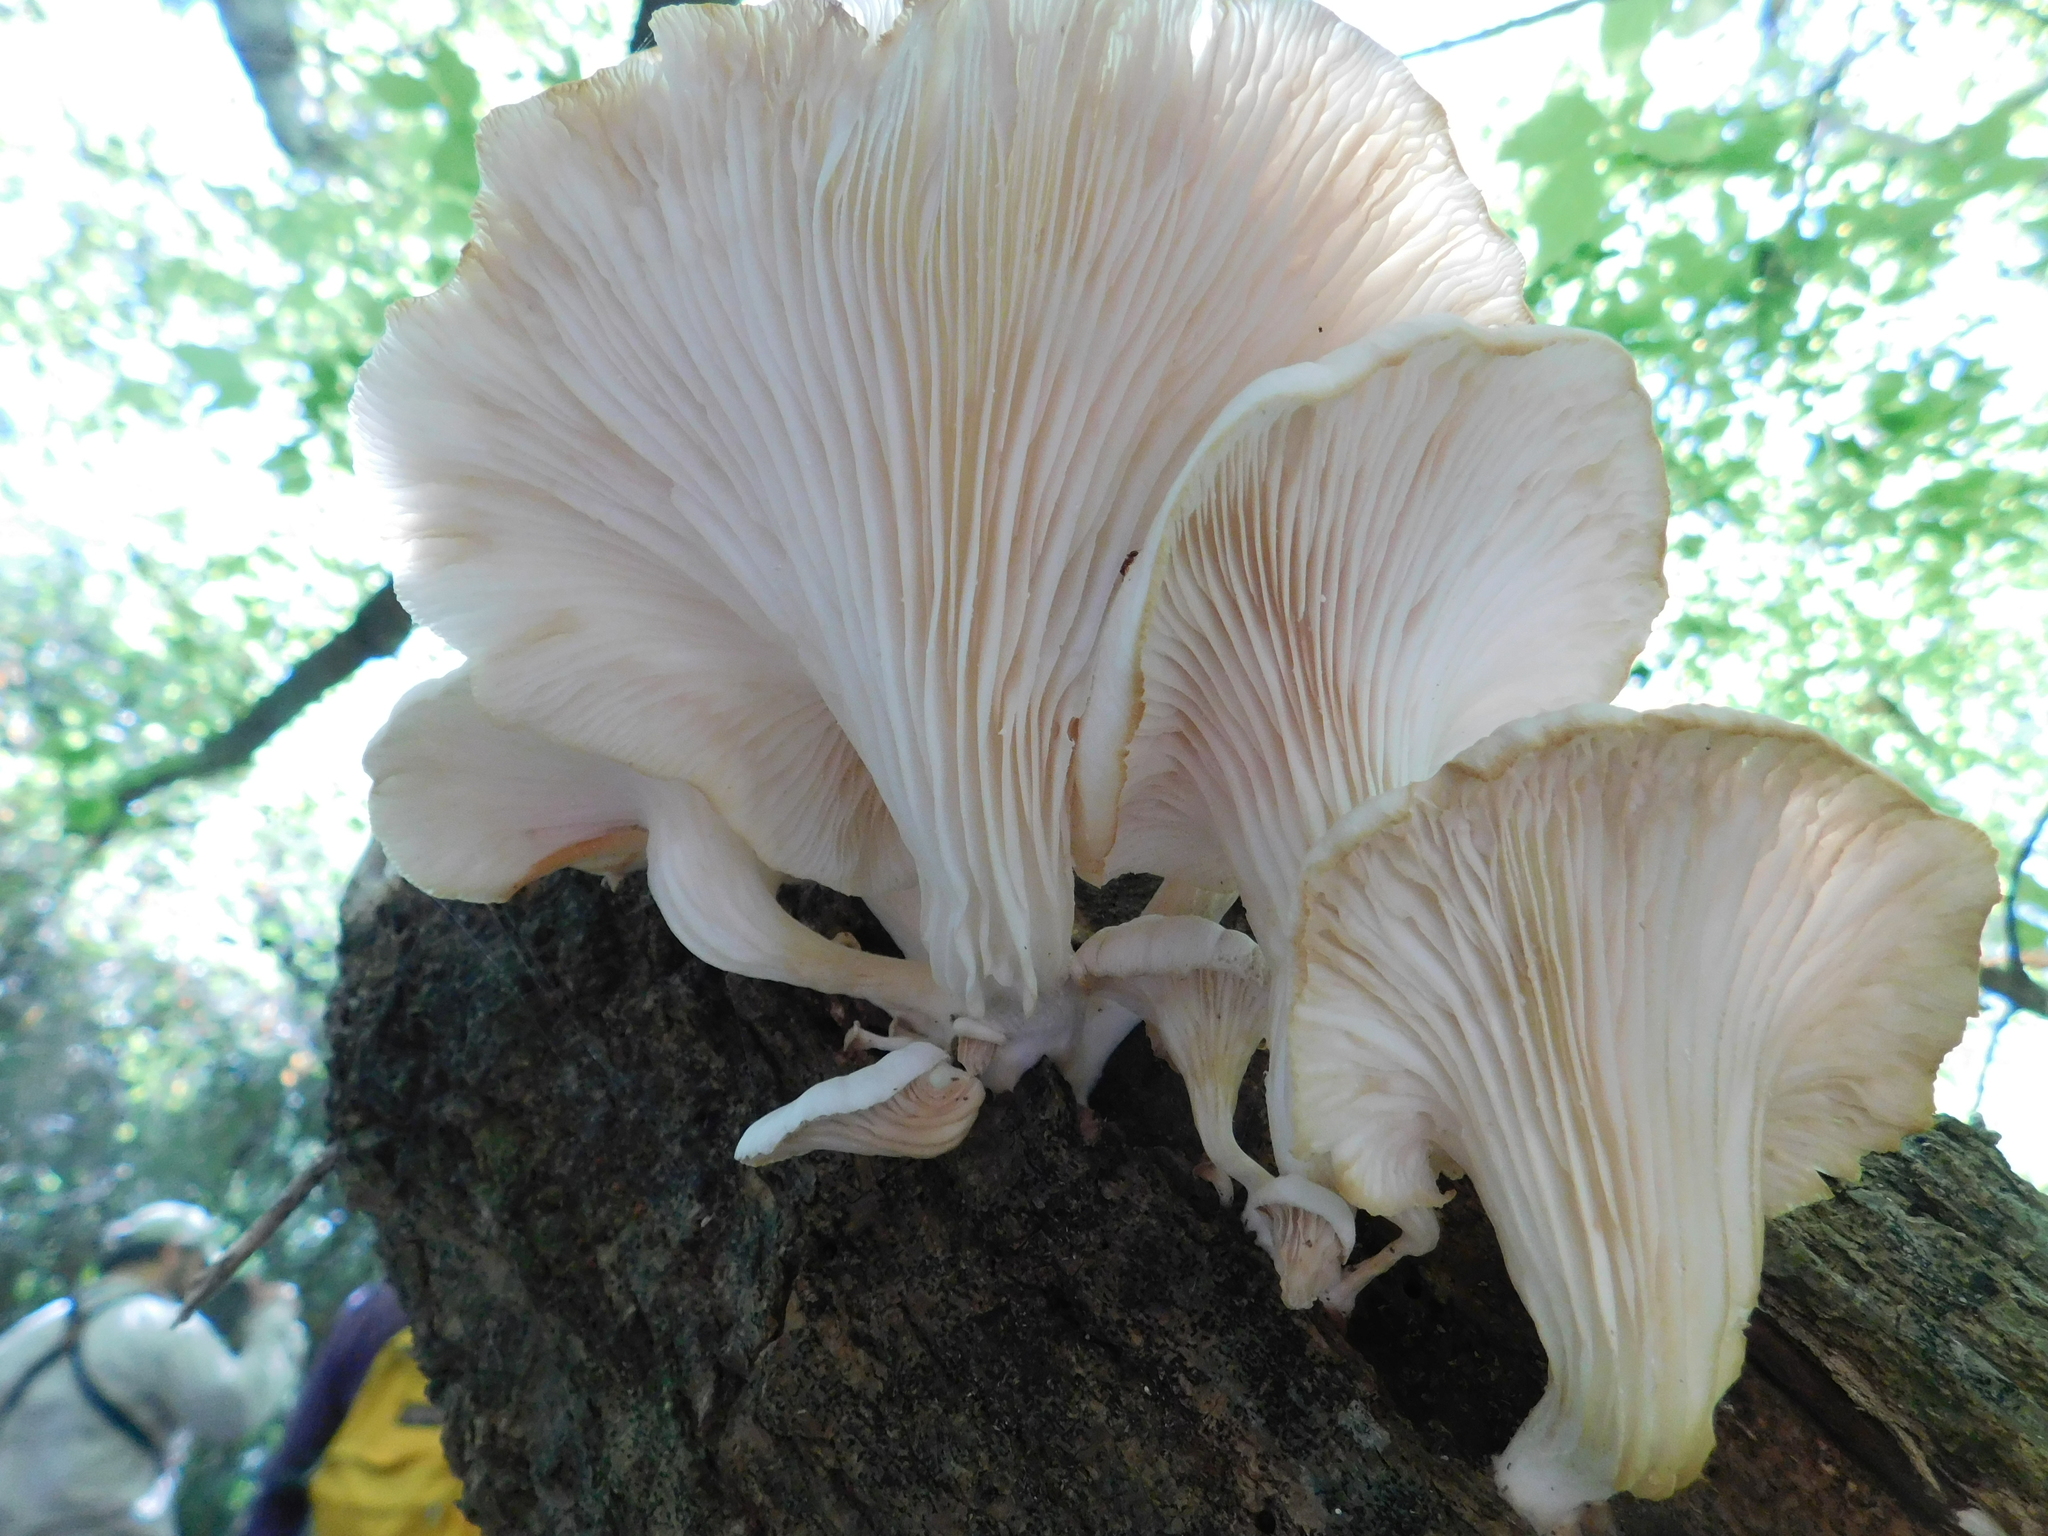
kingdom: Fungi
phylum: Basidiomycota
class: Agaricomycetes
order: Agaricales
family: Pleurotaceae
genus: Pleurotus
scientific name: Pleurotus albidus
